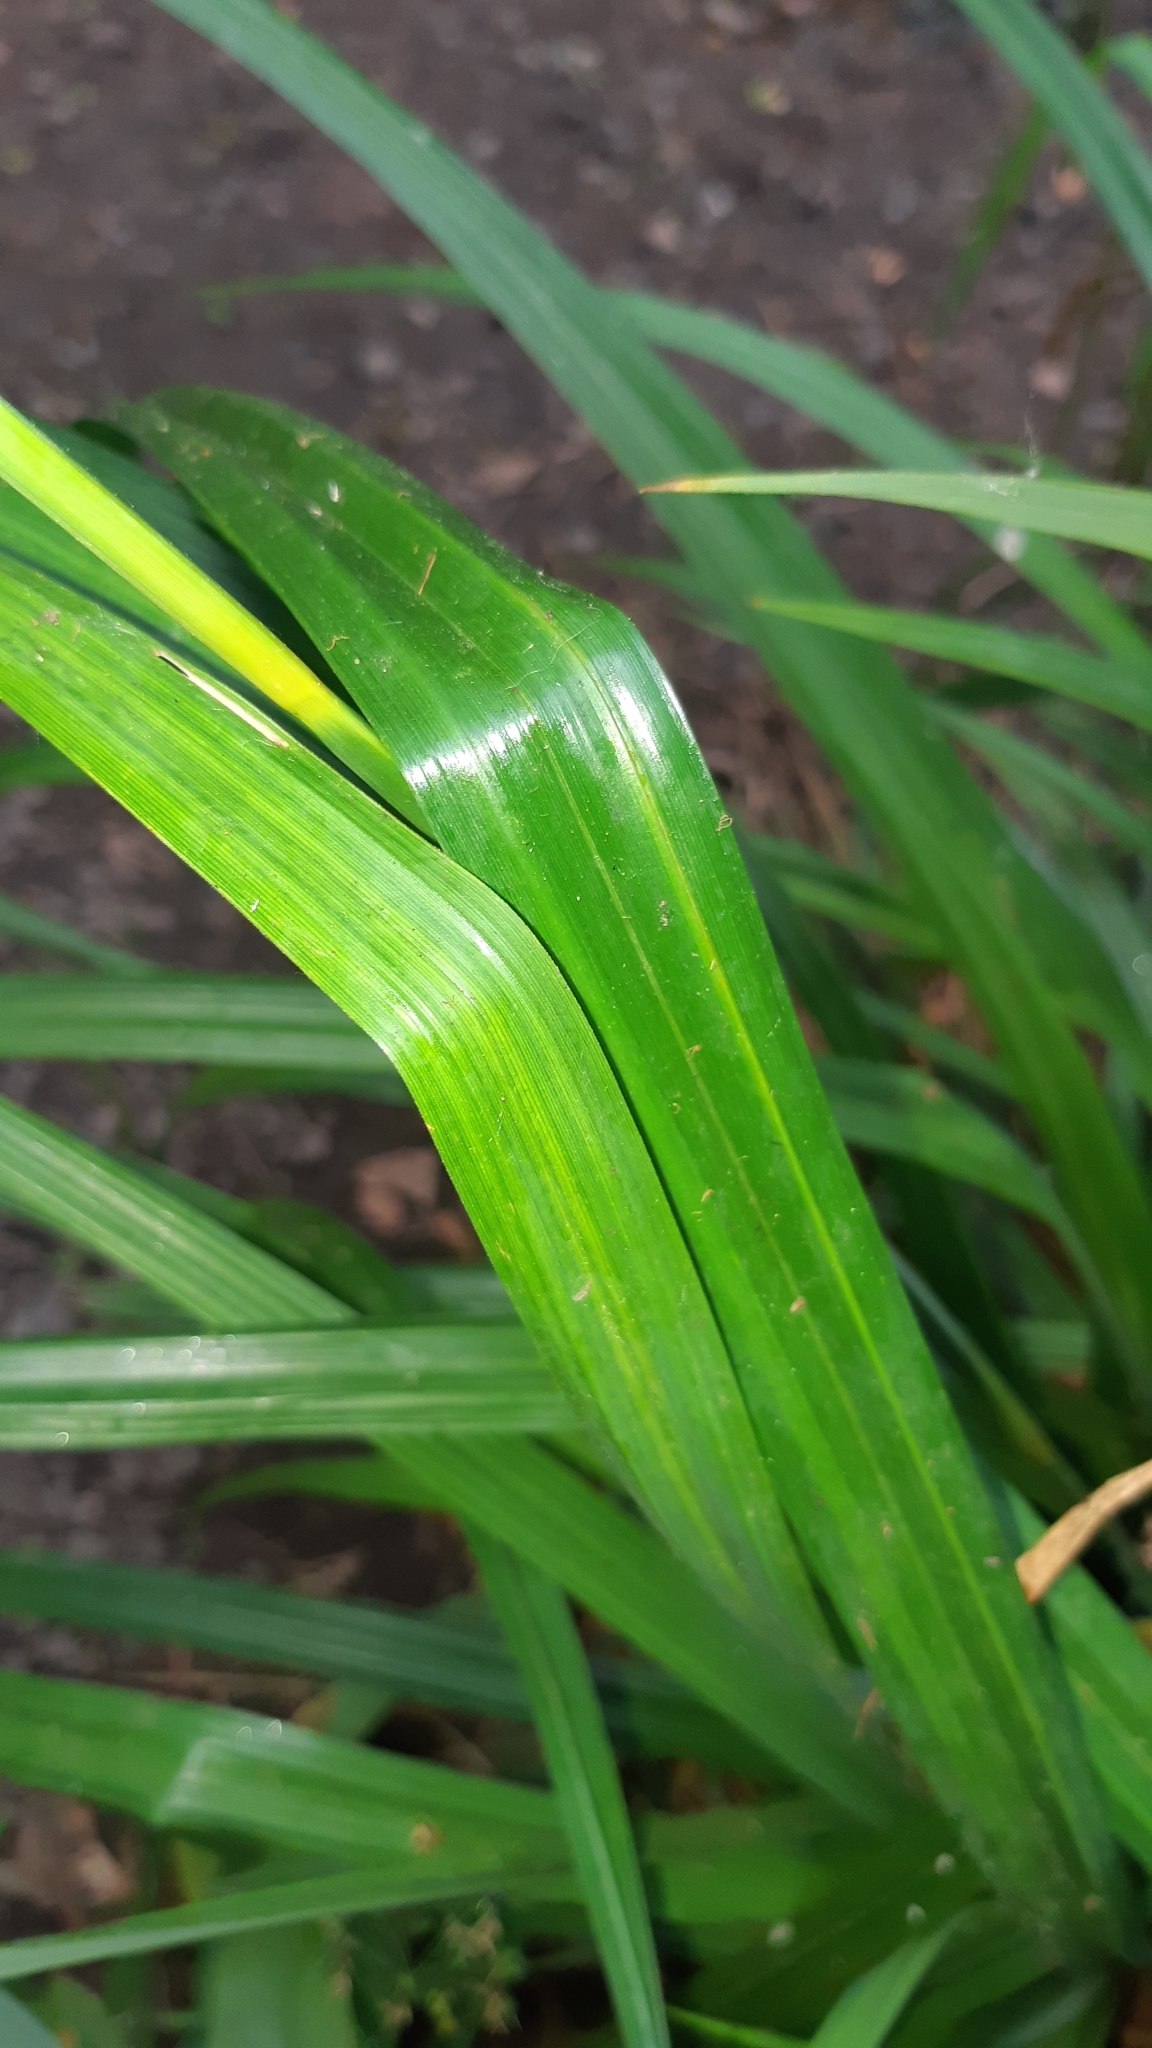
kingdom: Plantae
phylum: Tracheophyta
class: Liliopsida
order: Poales
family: Cyperaceae
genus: Carex
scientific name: Carex pendula
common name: Pendulous sedge
